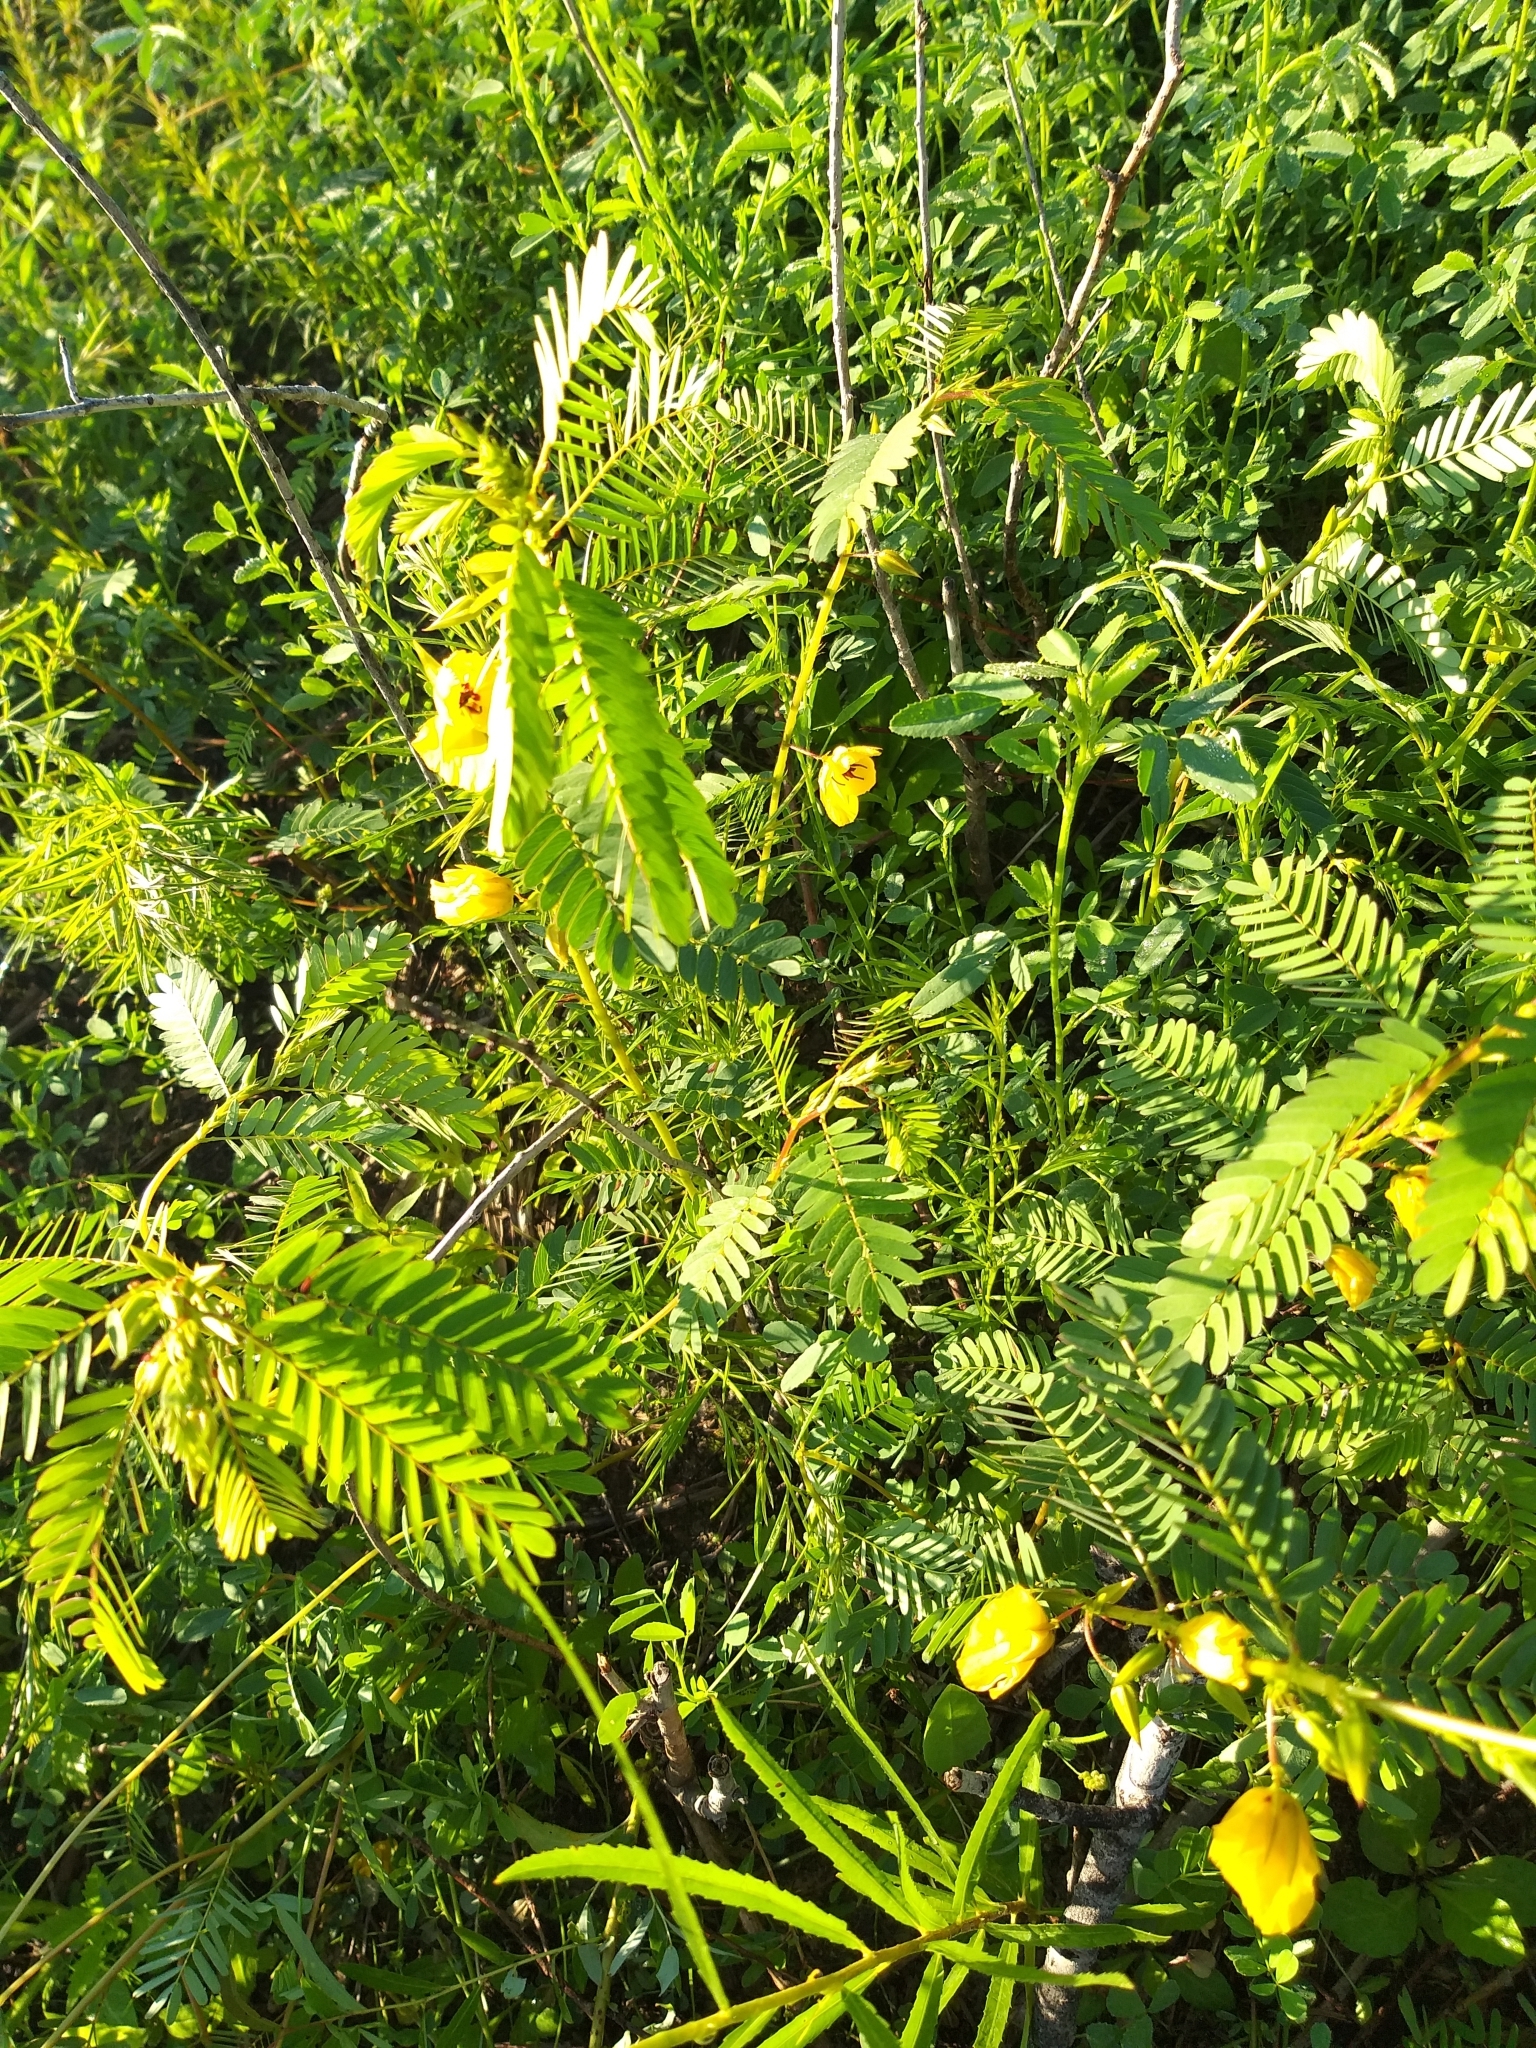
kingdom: Plantae
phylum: Tracheophyta
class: Magnoliopsida
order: Fabales
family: Fabaceae
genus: Chamaecrista
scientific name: Chamaecrista fasciculata
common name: Golden cassia
